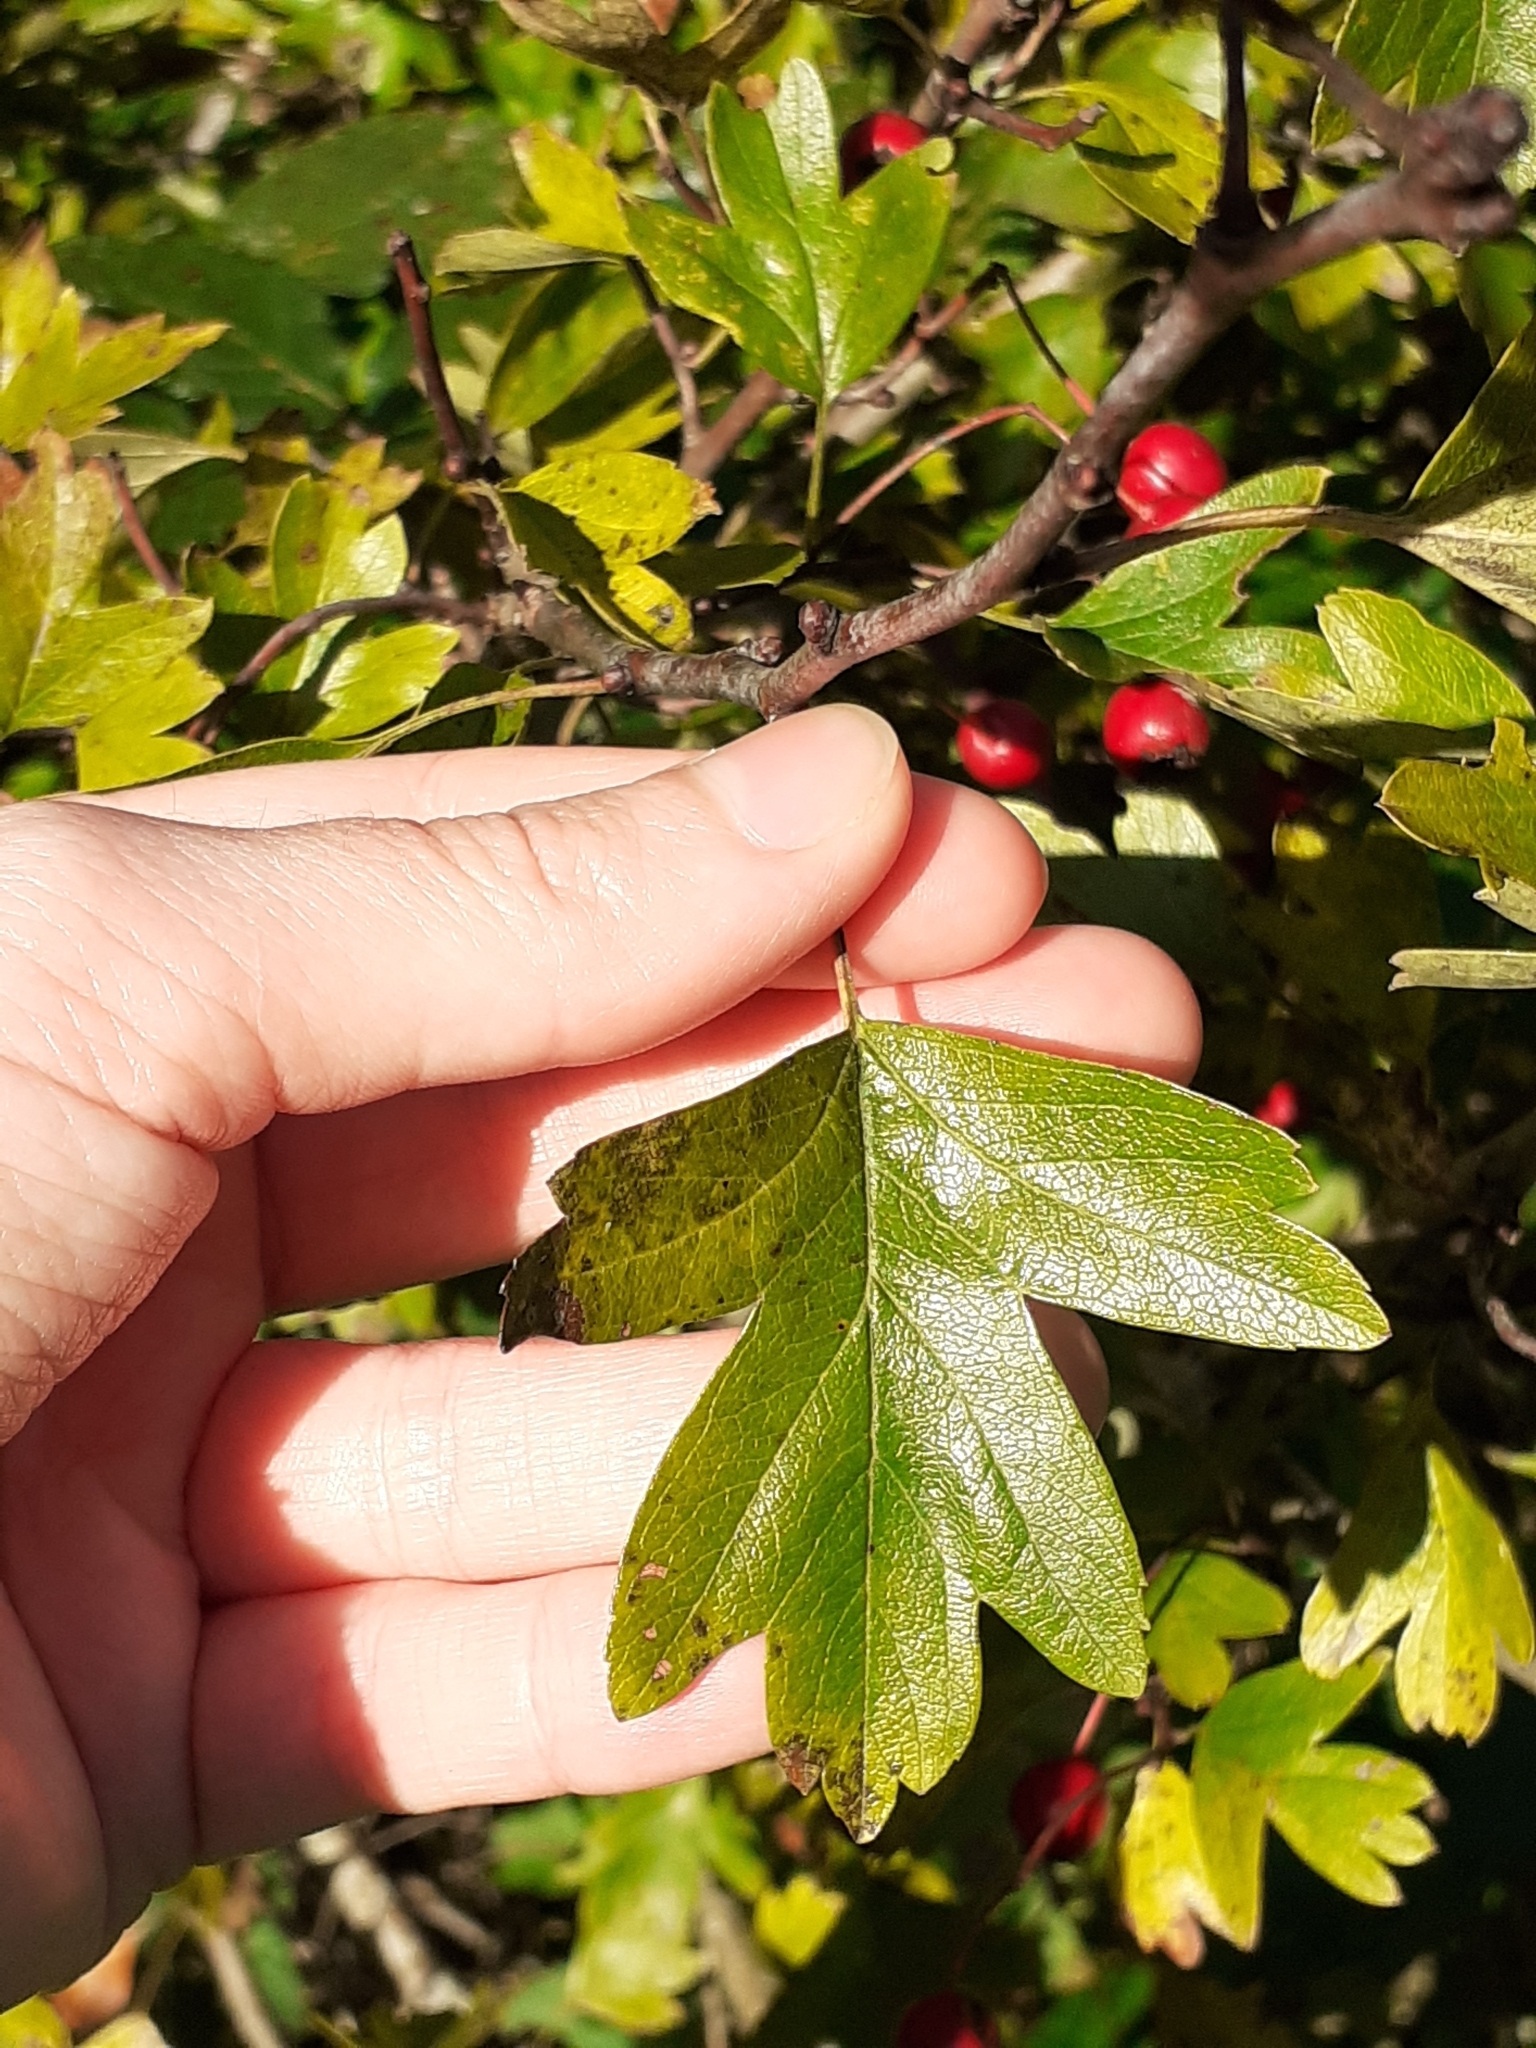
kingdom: Plantae
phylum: Tracheophyta
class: Magnoliopsida
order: Rosales
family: Rosaceae
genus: Crataegus
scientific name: Crataegus monogyna
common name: Hawthorn
